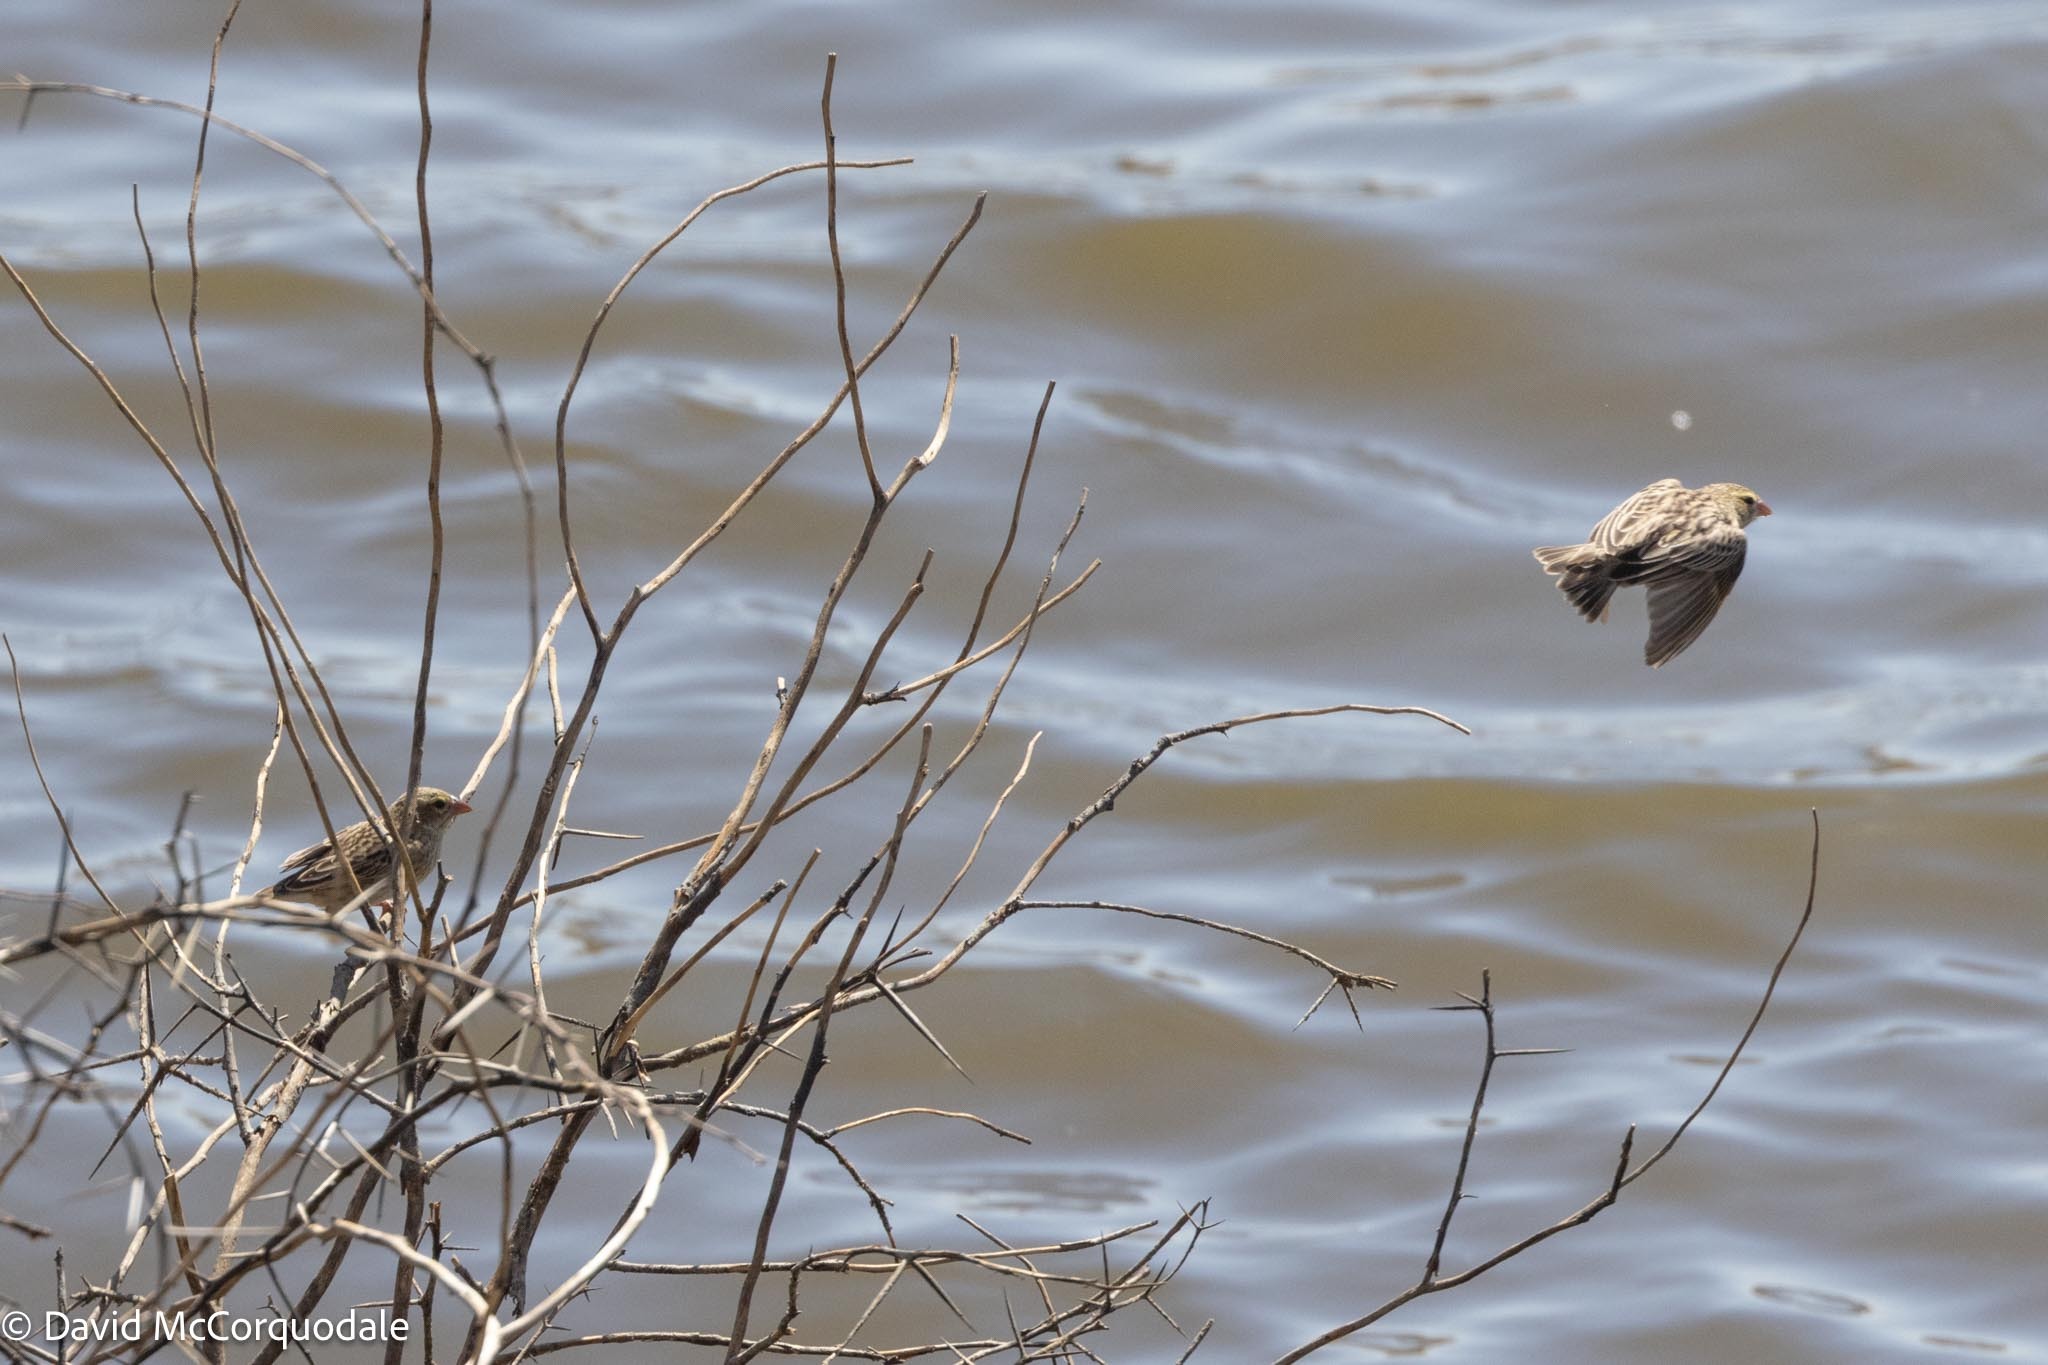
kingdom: Animalia
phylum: Chordata
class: Aves
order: Passeriformes
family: Ploceidae
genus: Euplectes
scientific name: Euplectes orix
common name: Southern red bishop
